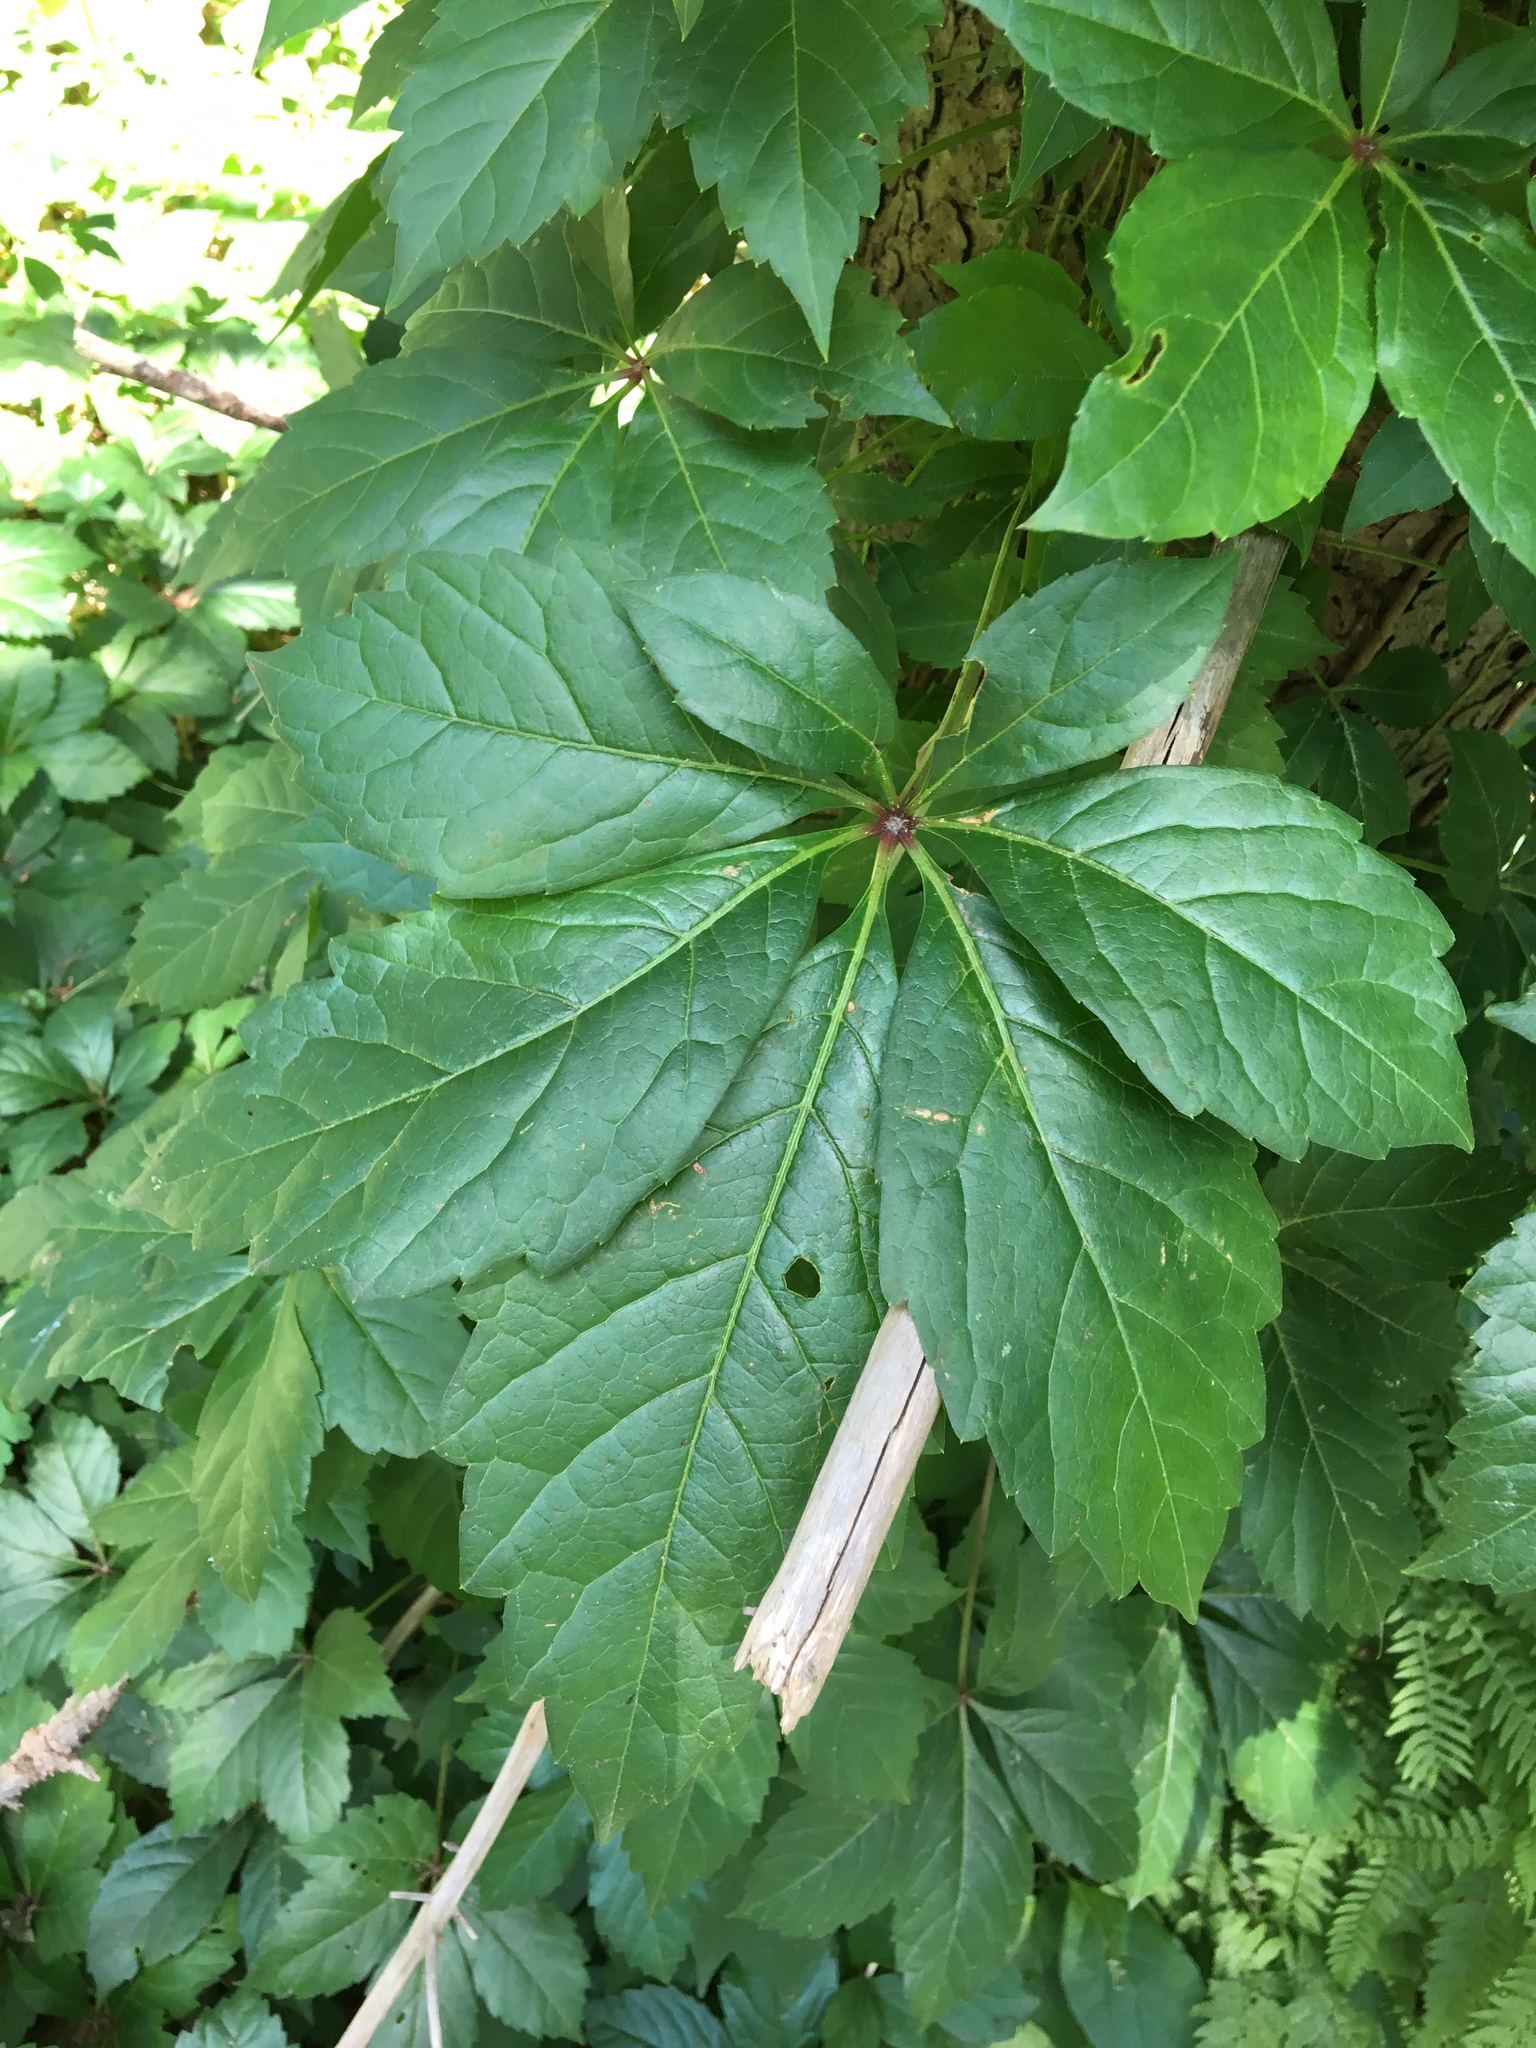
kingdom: Plantae
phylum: Tracheophyta
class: Magnoliopsida
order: Vitales
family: Vitaceae
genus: Parthenocissus
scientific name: Parthenocissus quinquefolia
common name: Virginia-creeper
